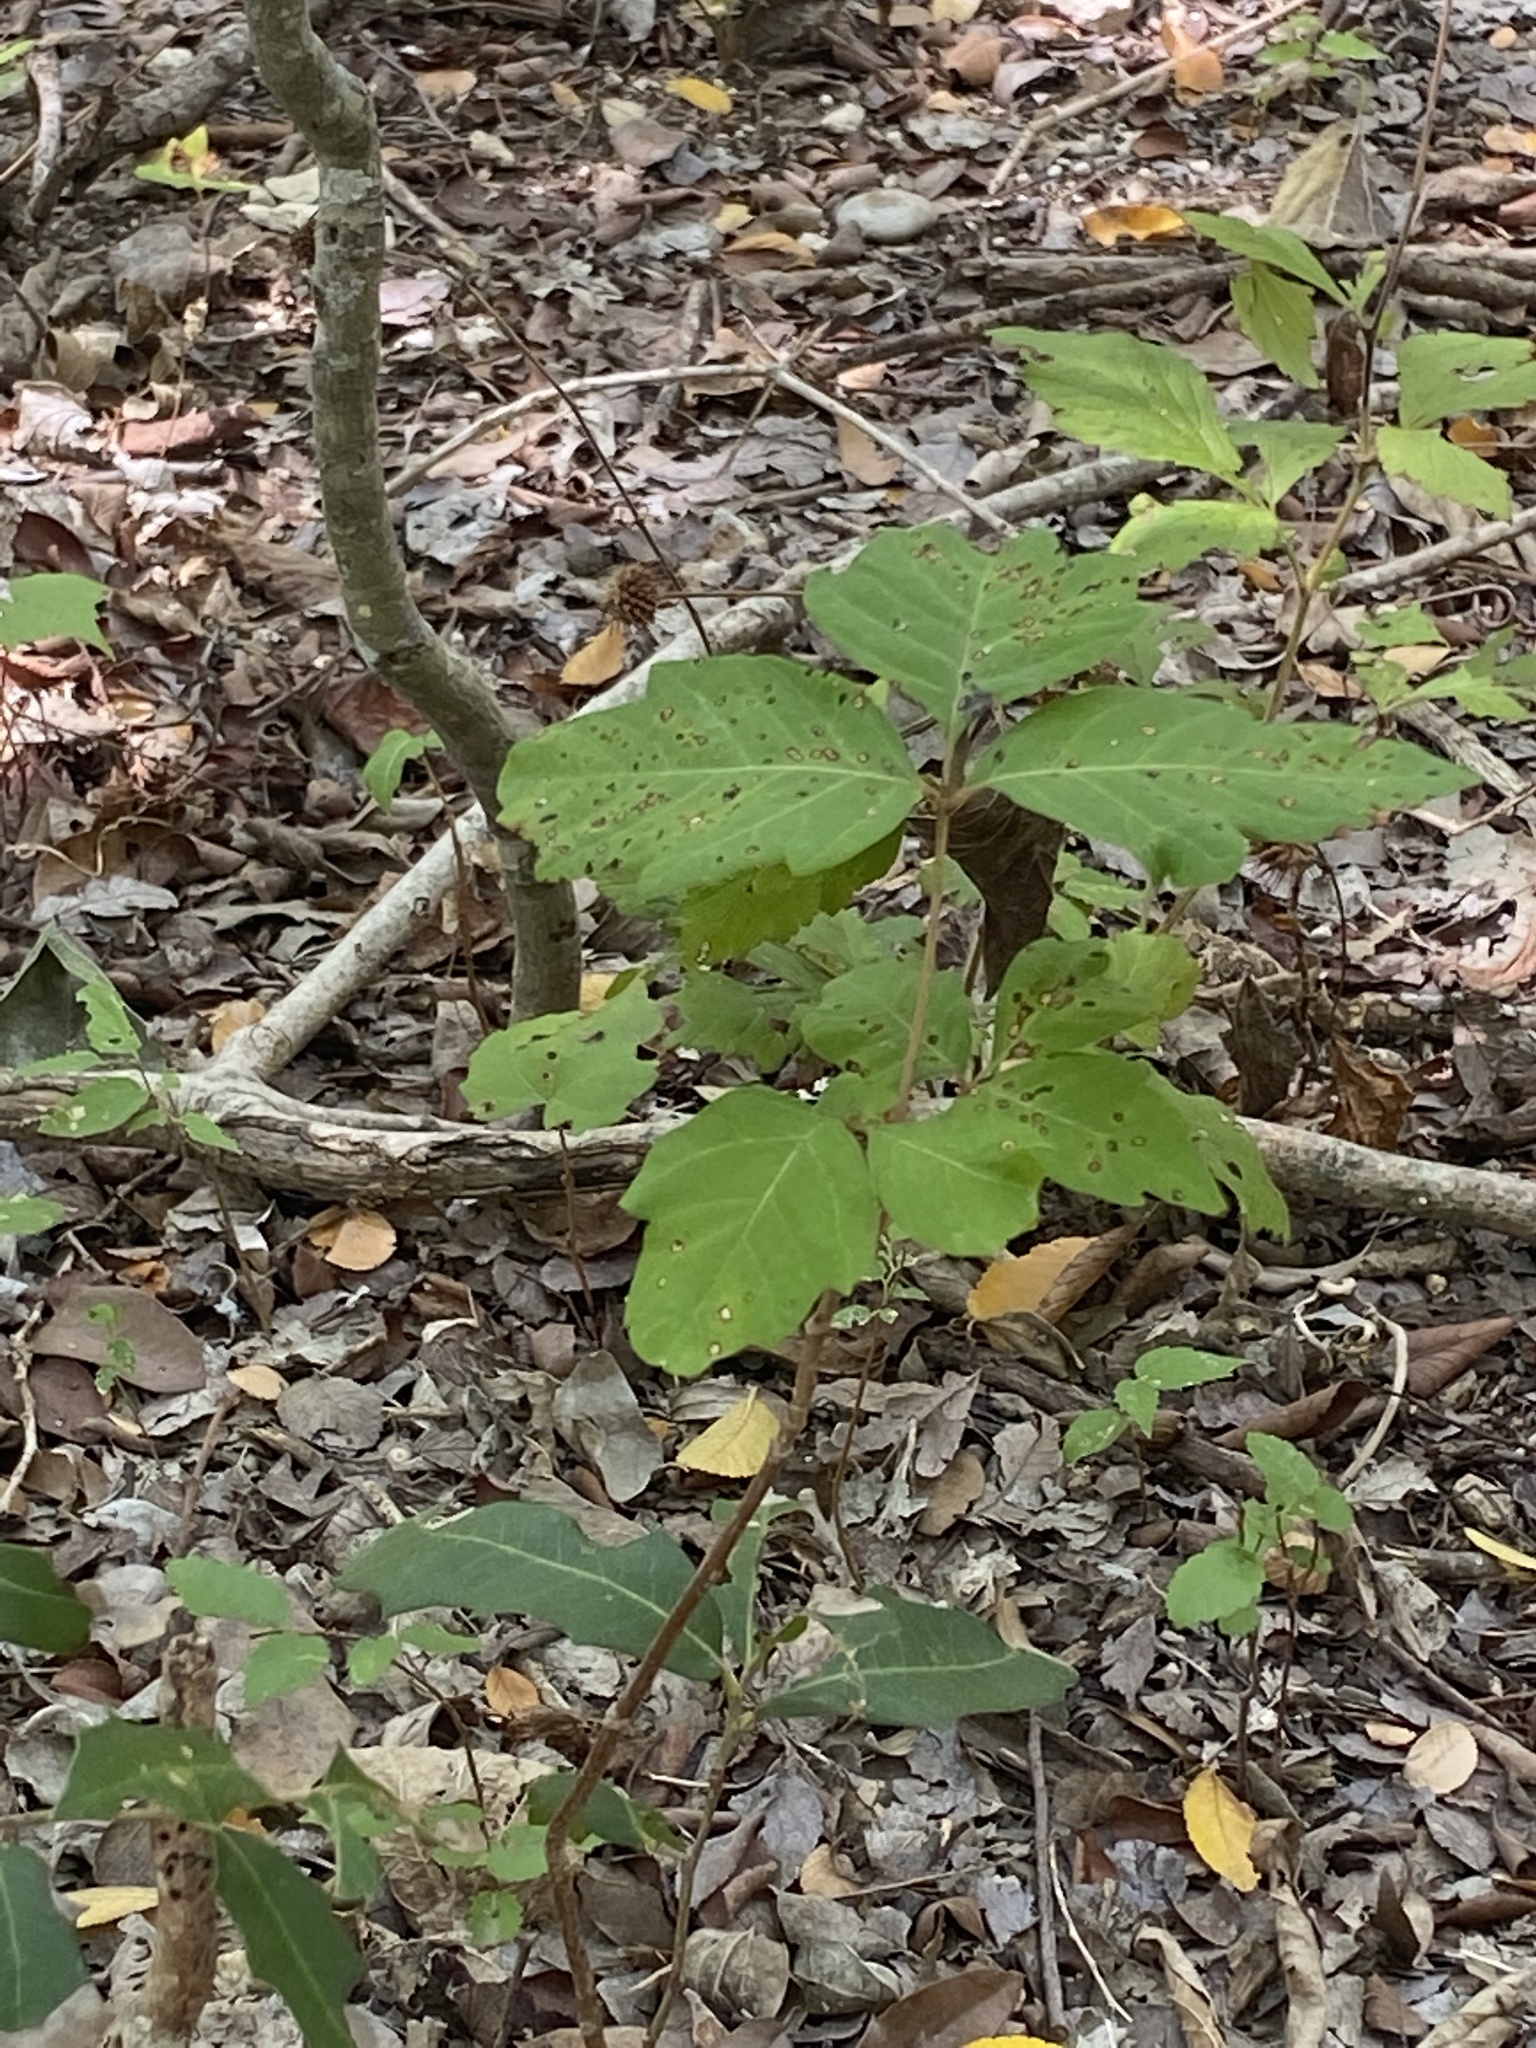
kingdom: Plantae
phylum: Tracheophyta
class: Magnoliopsida
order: Sapindales
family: Anacardiaceae
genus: Toxicodendron
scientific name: Toxicodendron radicans
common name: Poison ivy
